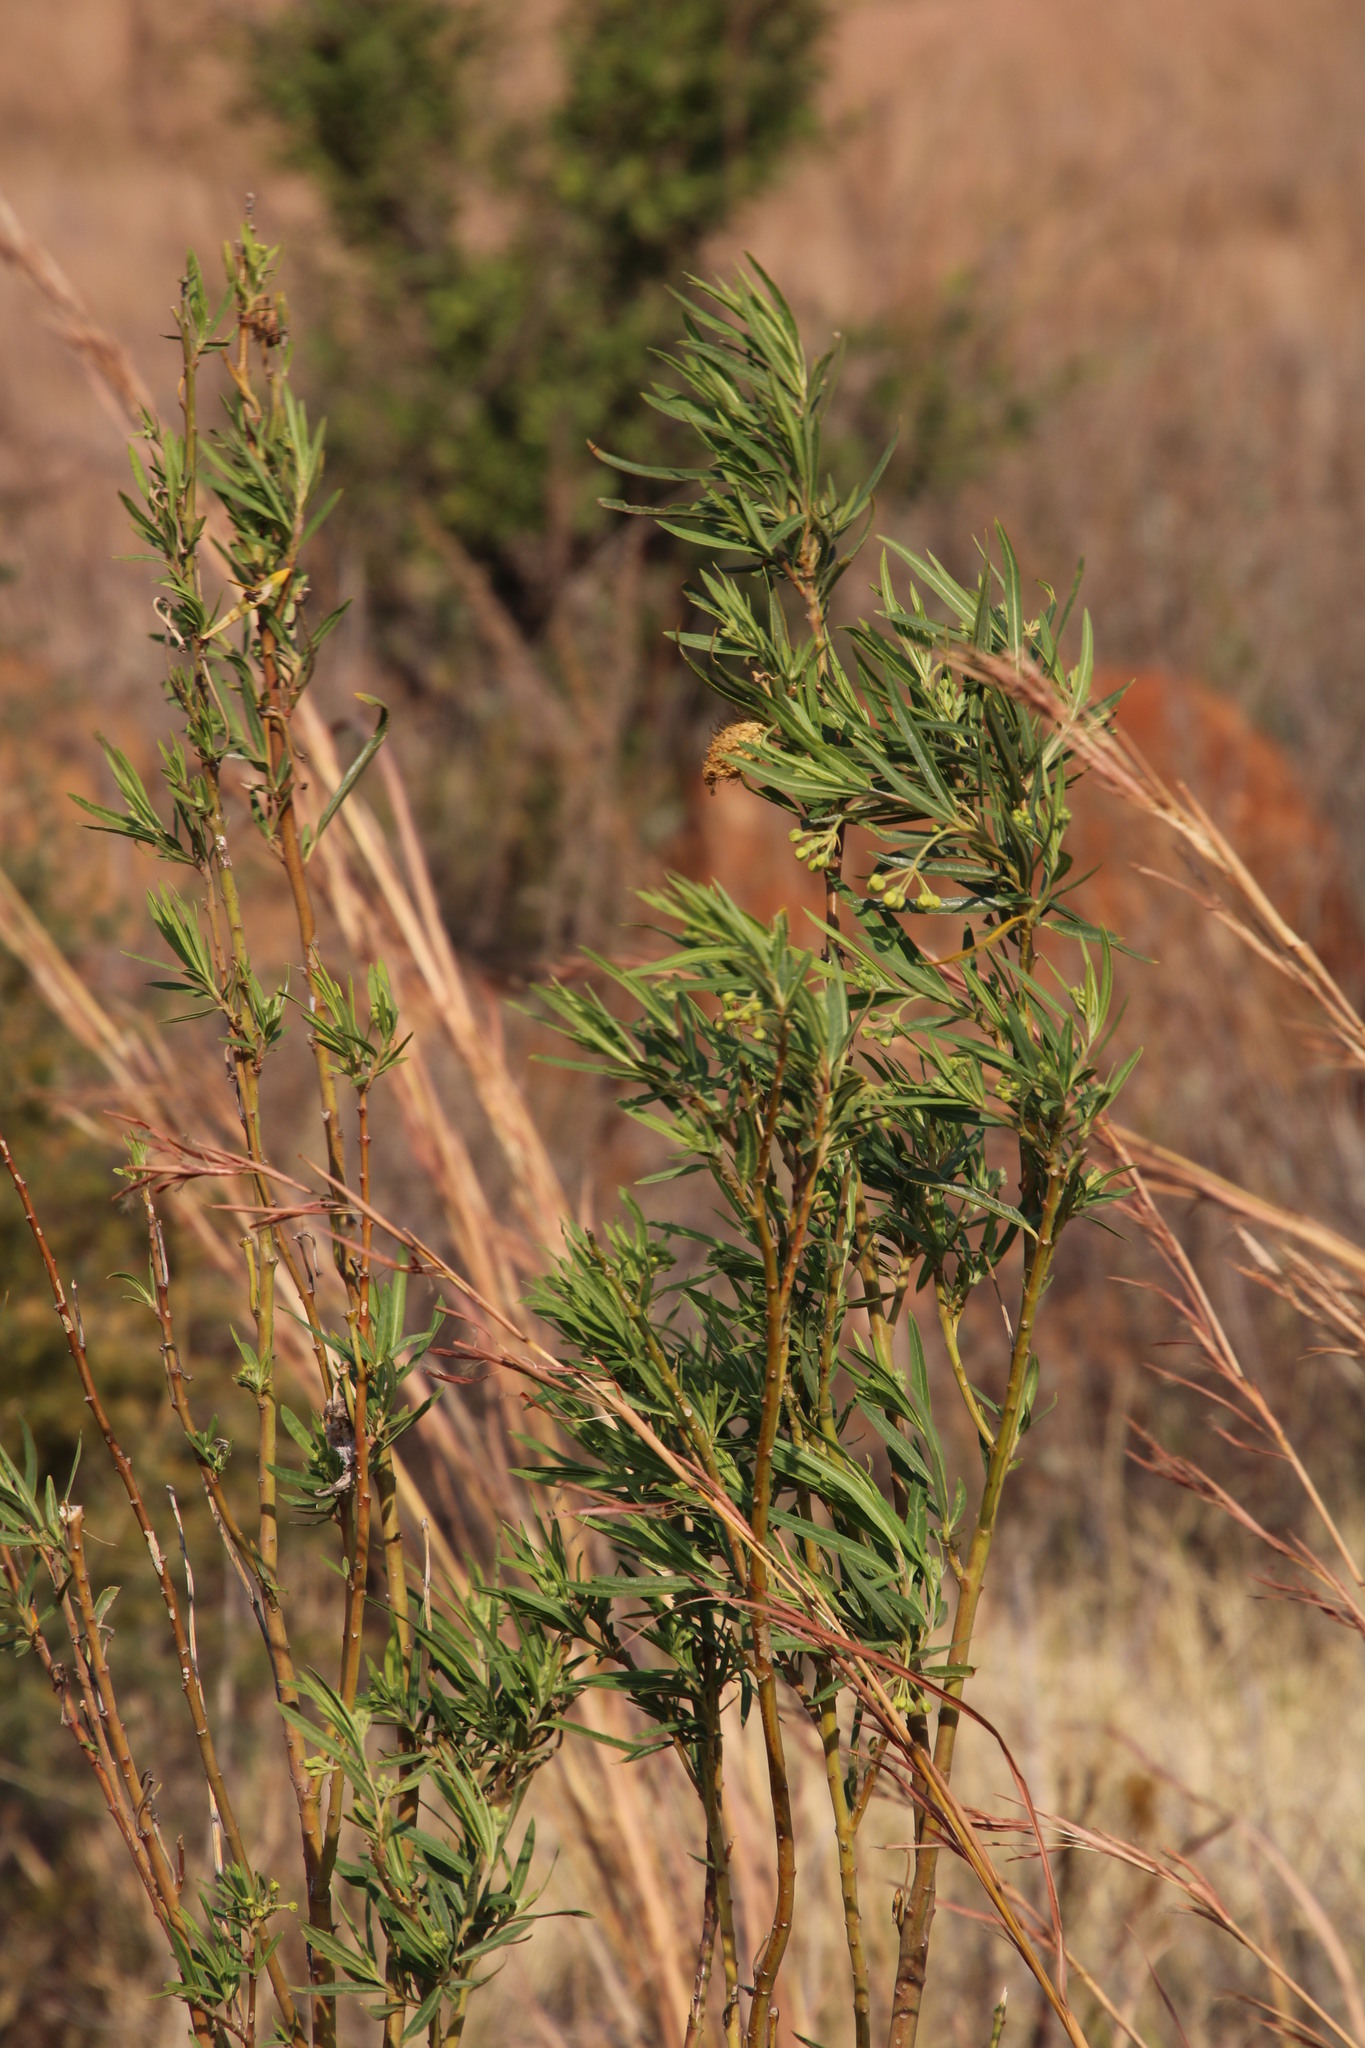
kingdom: Plantae
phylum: Tracheophyta
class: Magnoliopsida
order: Gentianales
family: Apocynaceae
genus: Gomphocarpus
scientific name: Gomphocarpus fruticosus
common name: Milkweed
